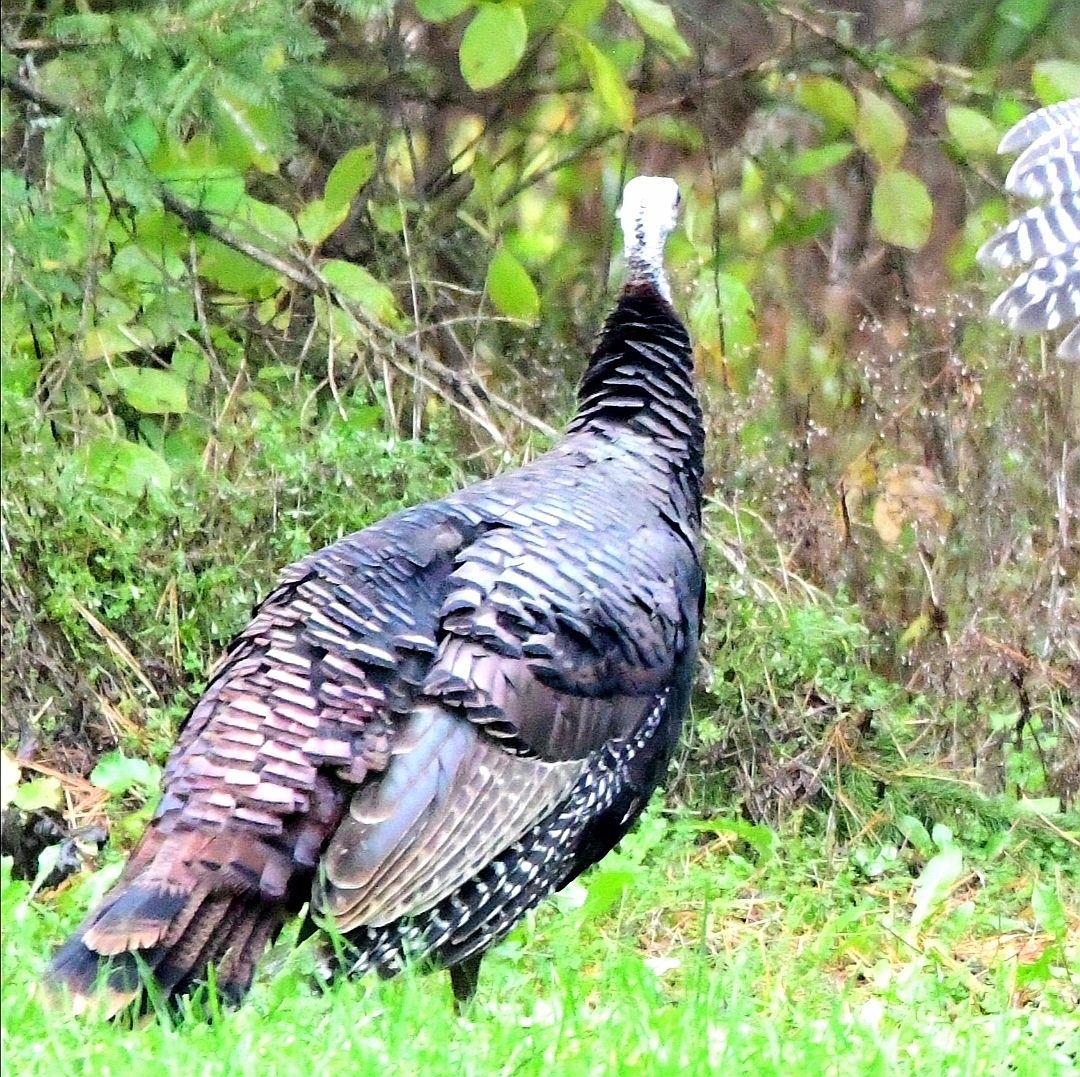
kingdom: Animalia
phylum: Chordata
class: Aves
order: Galliformes
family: Phasianidae
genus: Meleagris
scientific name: Meleagris gallopavo
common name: Wild turkey
